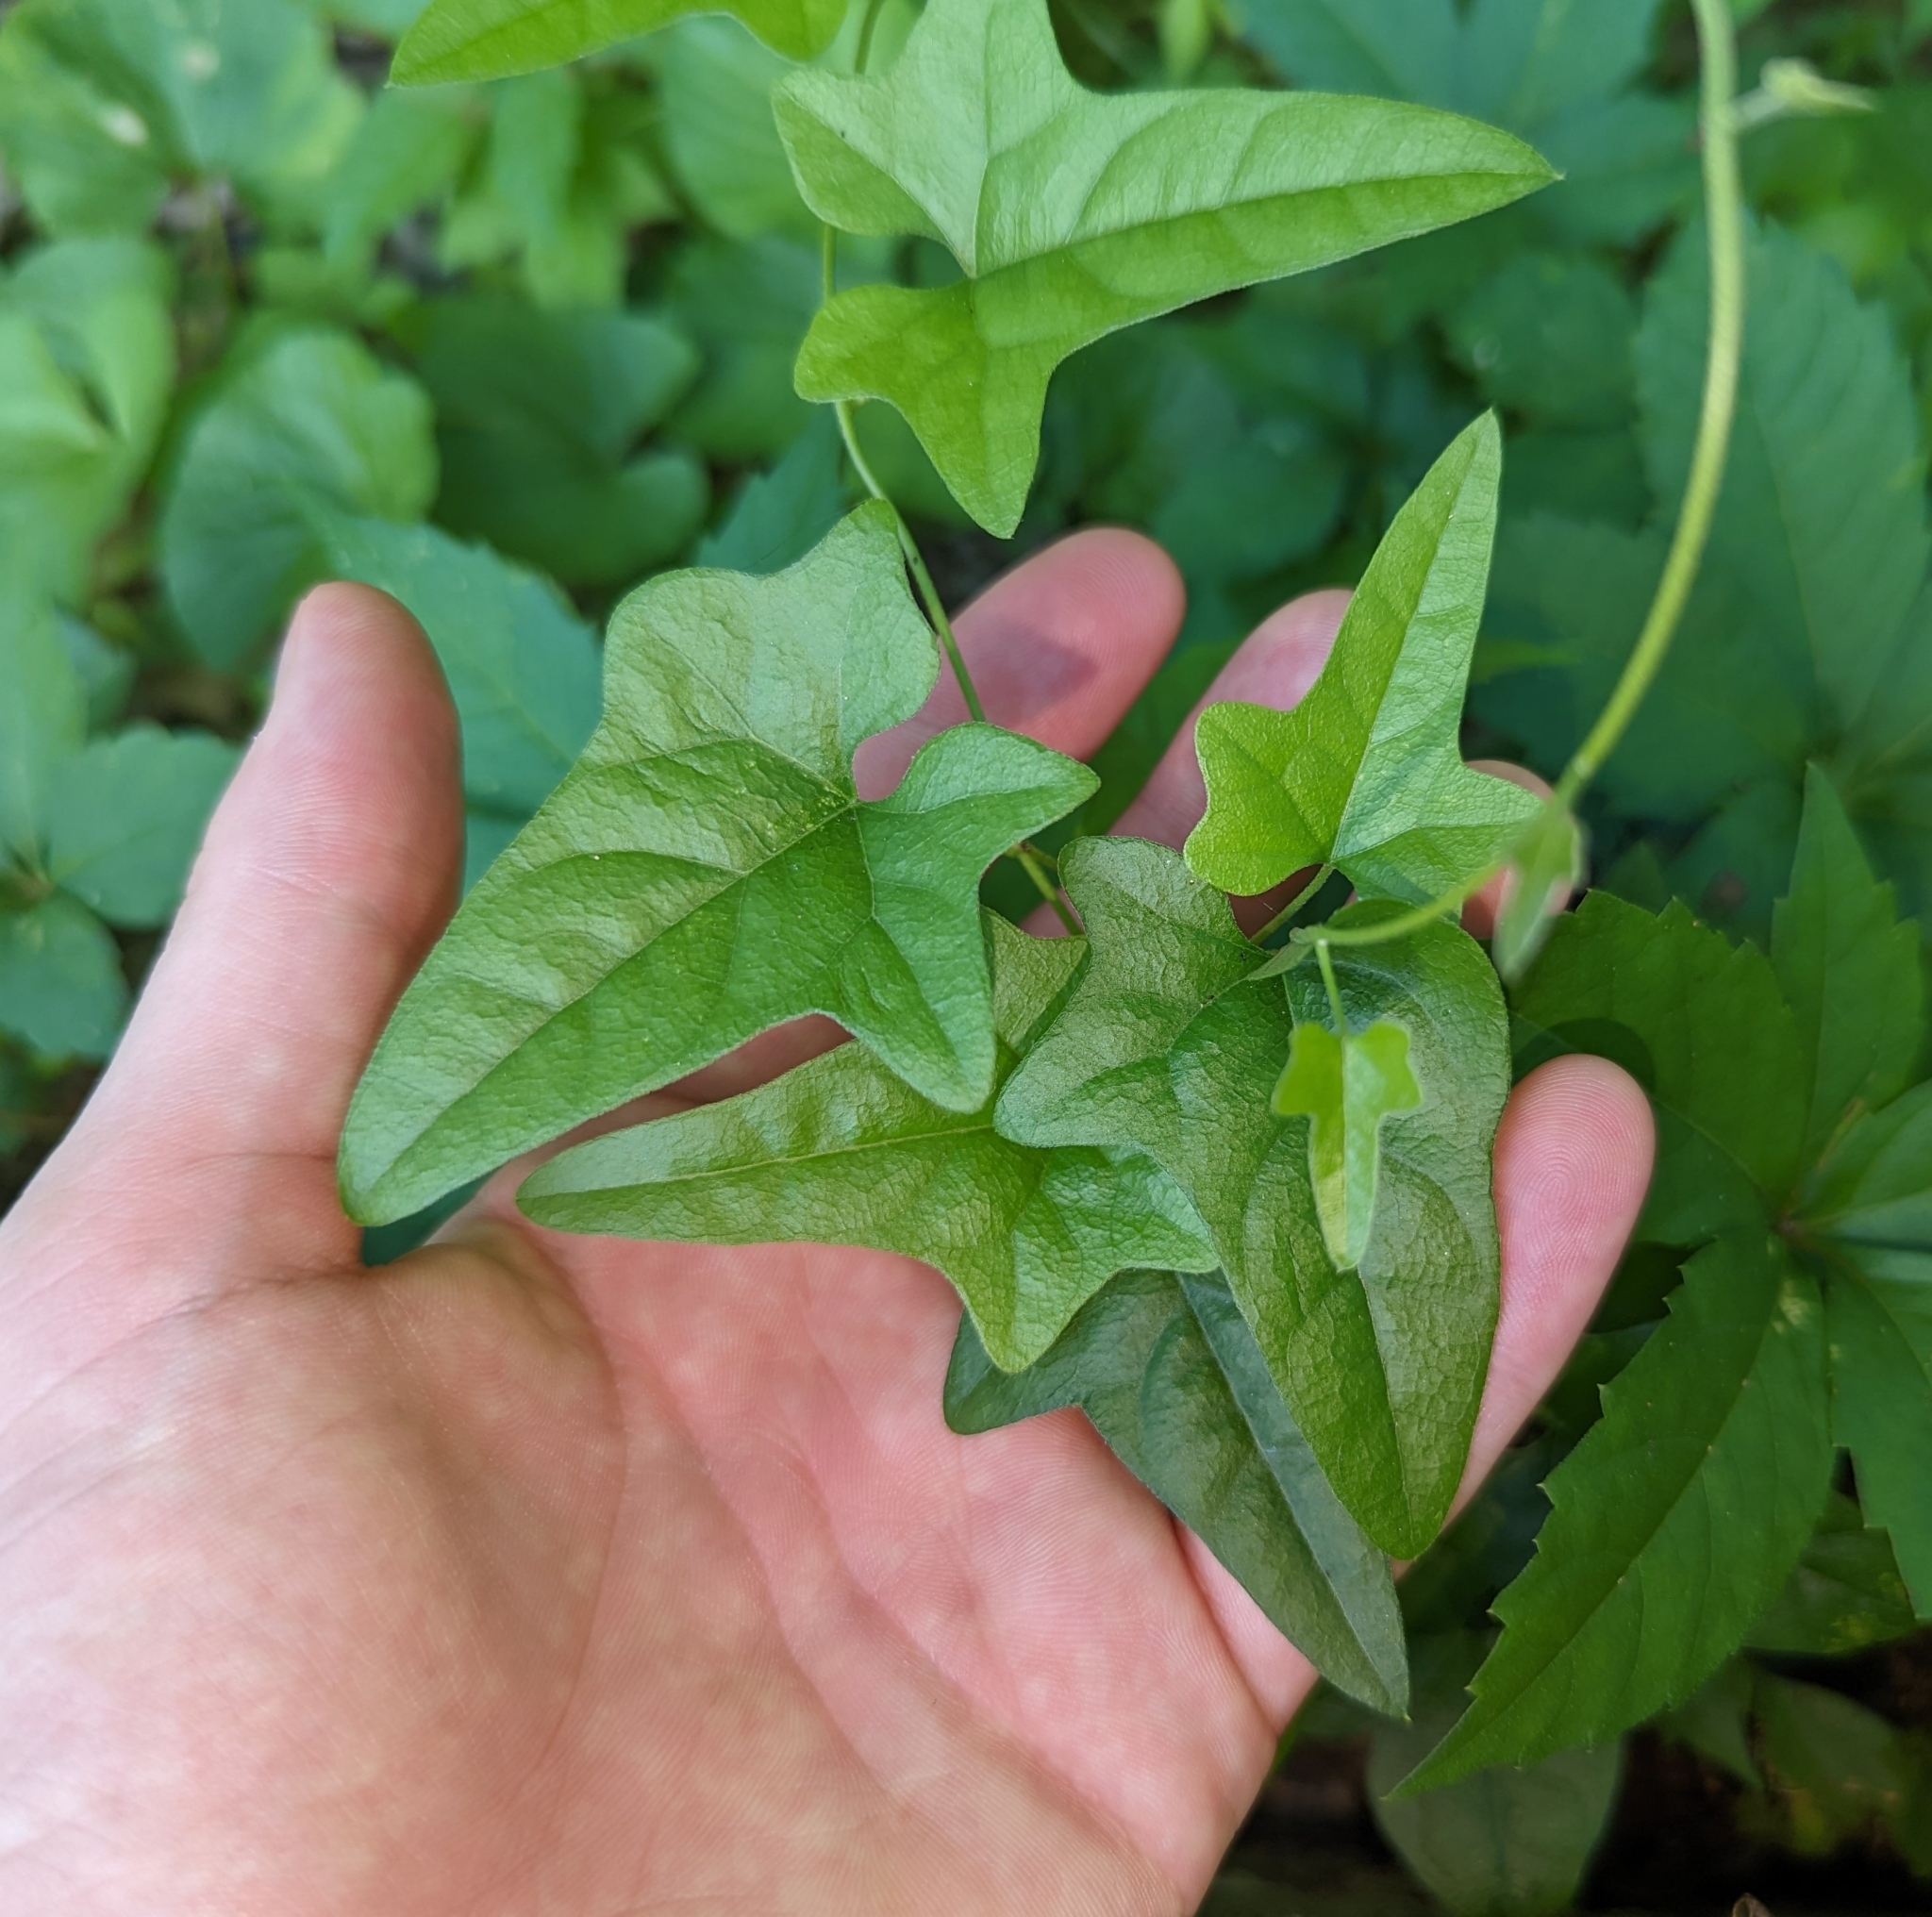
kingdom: Plantae
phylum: Tracheophyta
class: Magnoliopsida
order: Ranunculales
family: Menispermaceae
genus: Cocculus
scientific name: Cocculus carolinus
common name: Carolina moonseed
